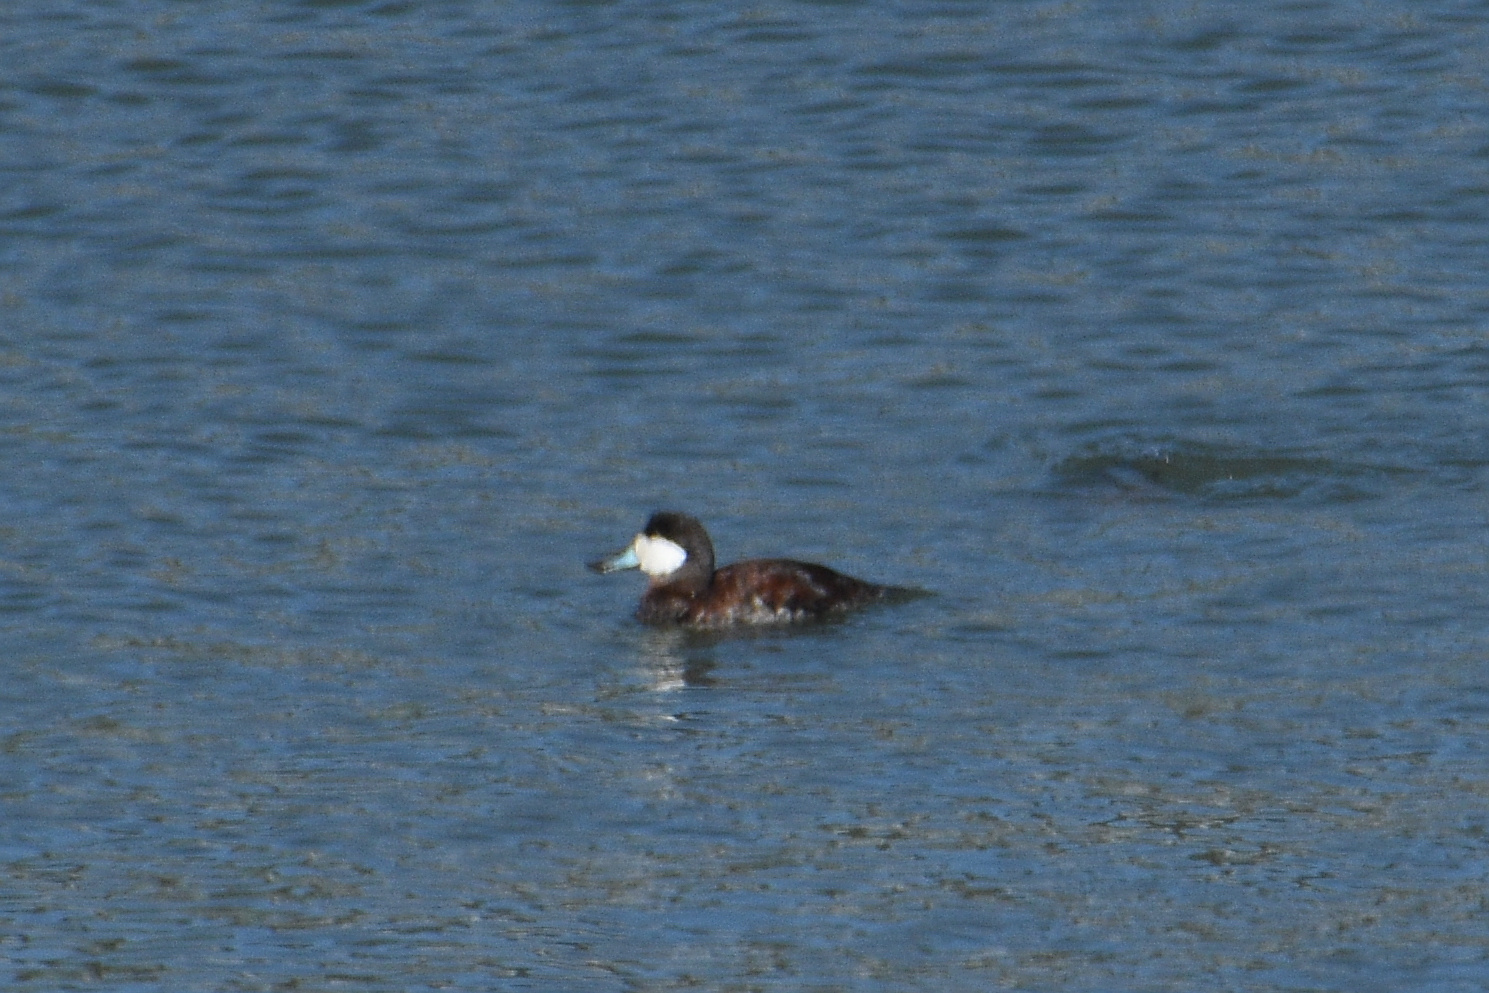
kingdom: Animalia
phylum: Chordata
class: Aves
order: Anseriformes
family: Anatidae
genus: Oxyura
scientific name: Oxyura jamaicensis
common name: Ruddy duck
